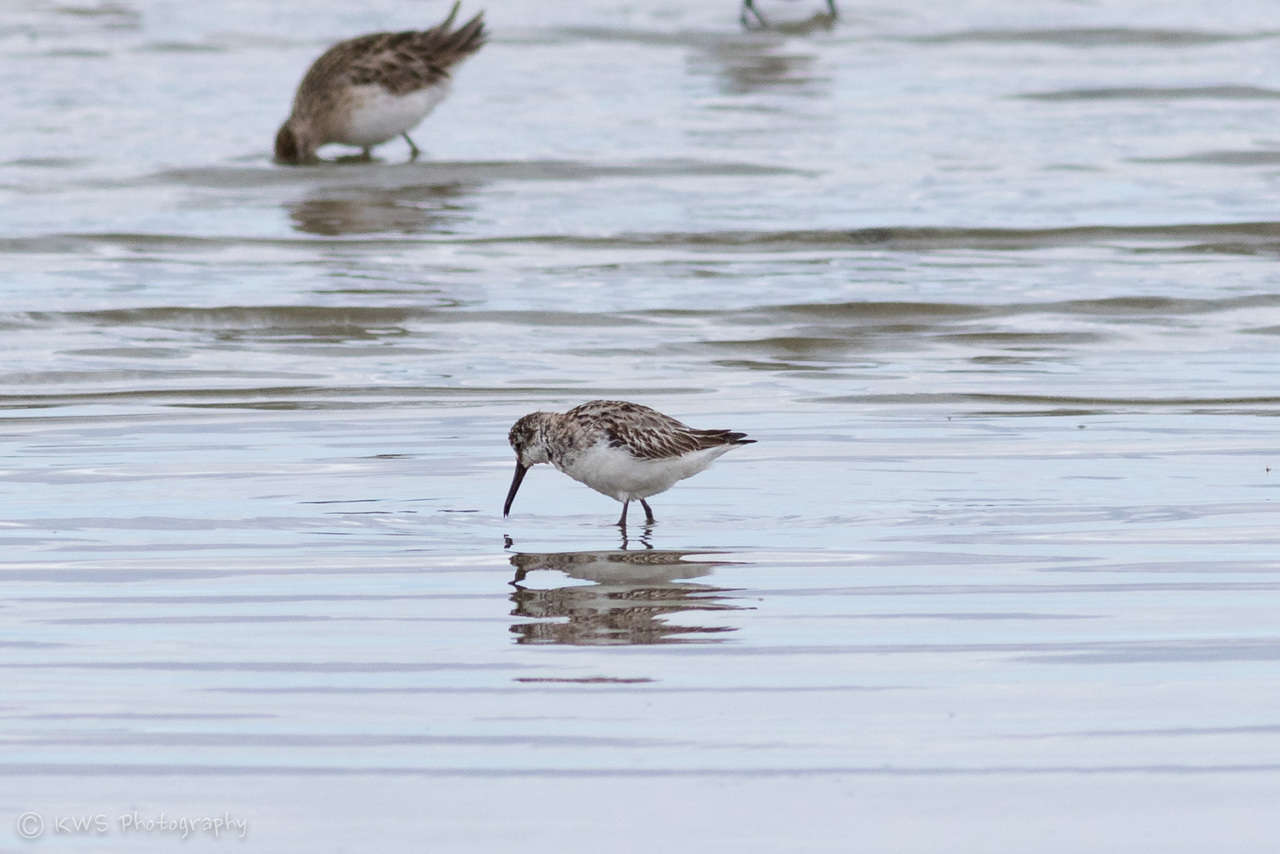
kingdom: Animalia
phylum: Chordata
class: Aves
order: Charadriiformes
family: Scolopacidae
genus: Calidris
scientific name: Calidris falcinellus
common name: Broad-billed sandpiper
